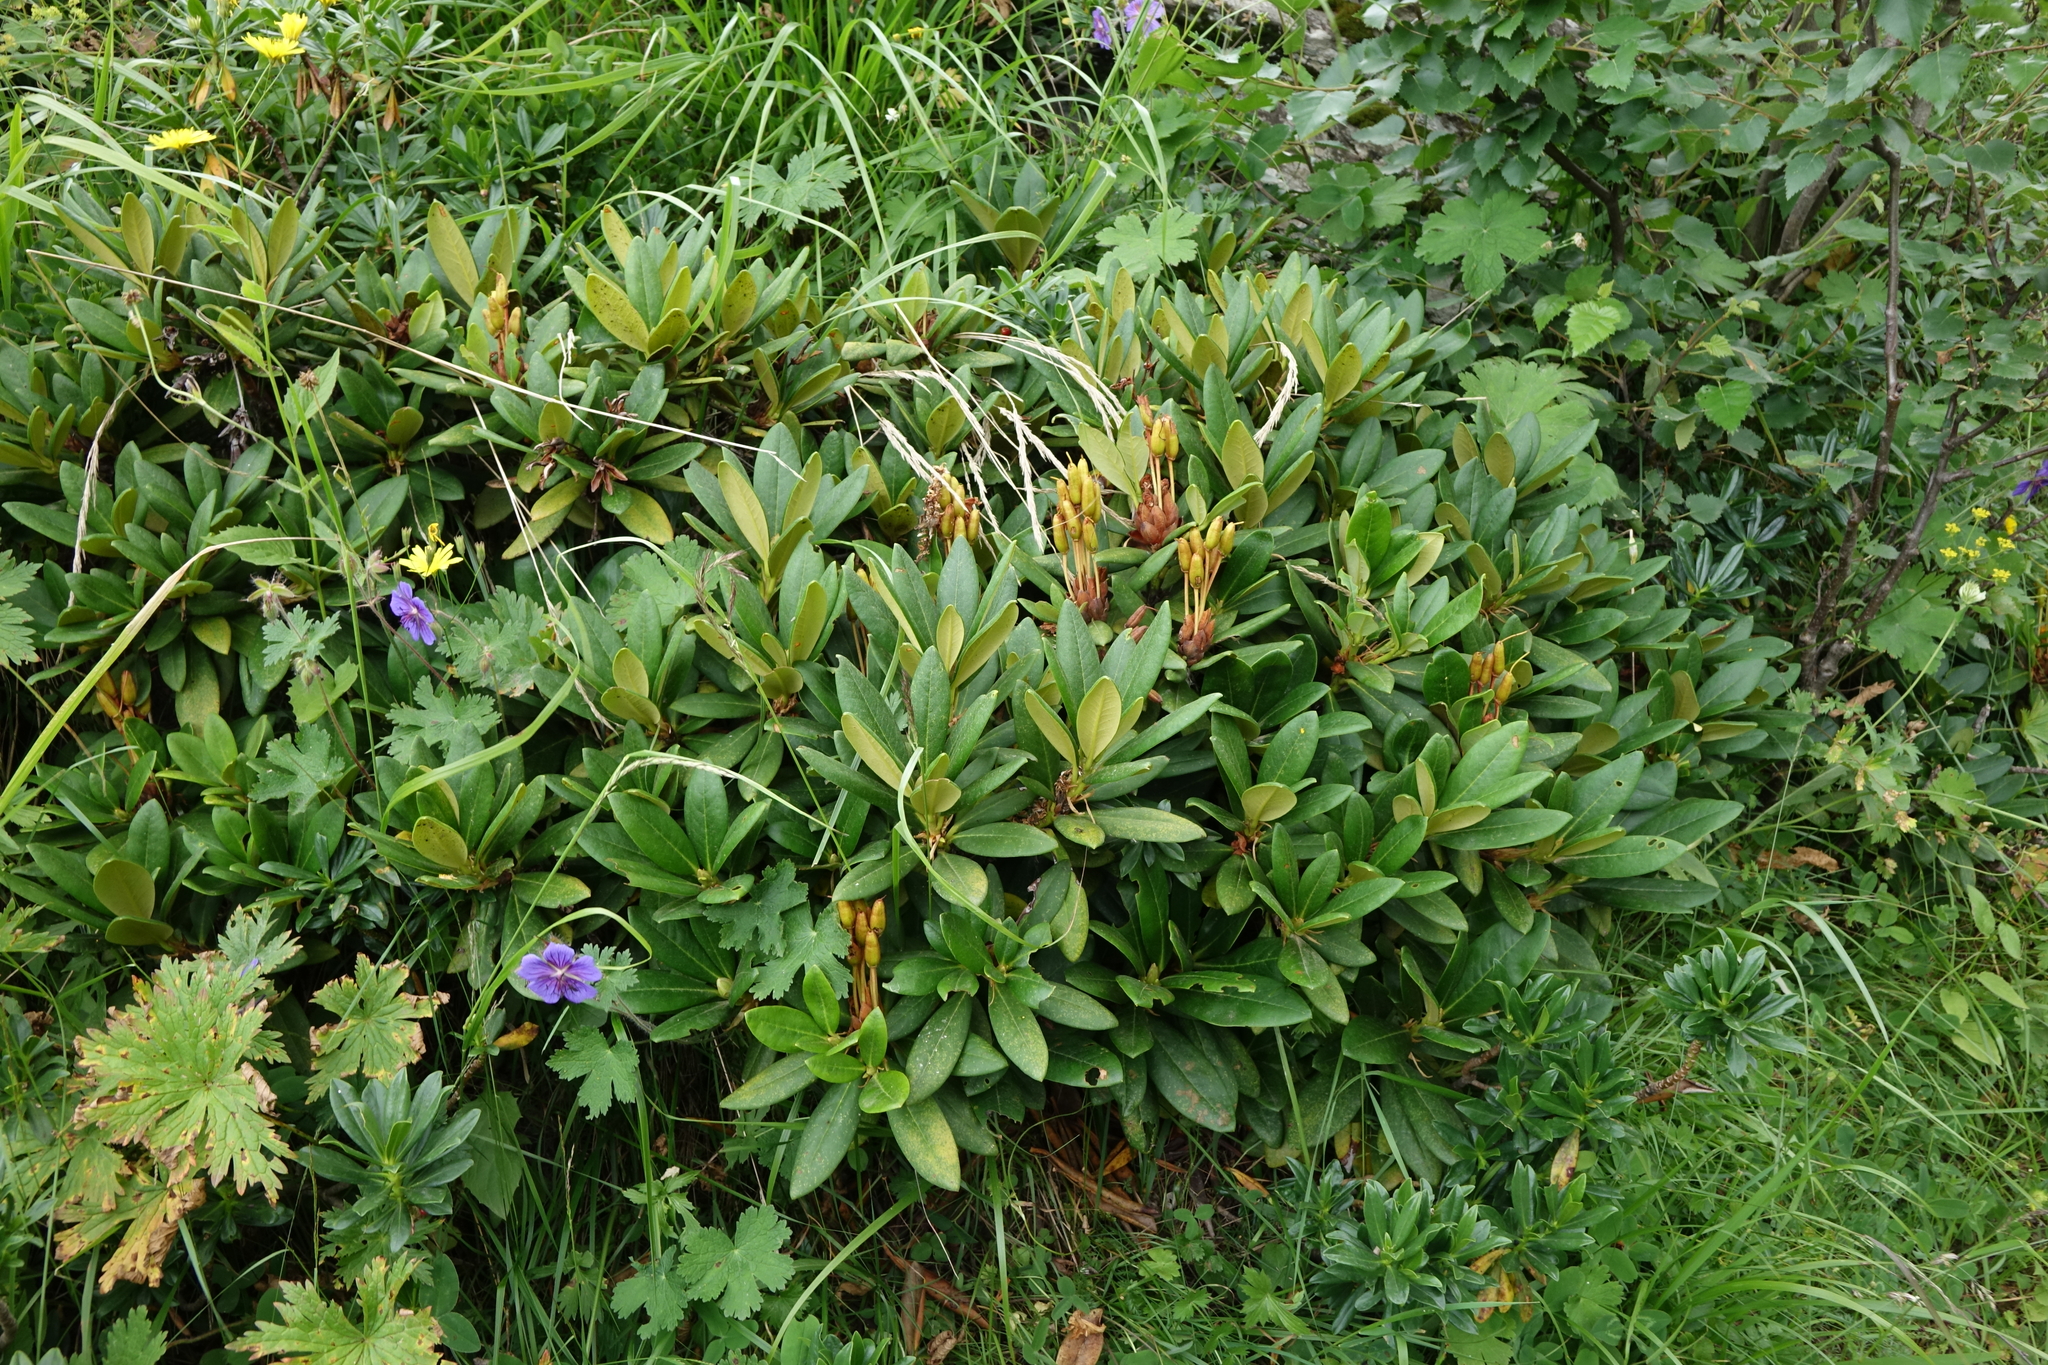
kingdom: Plantae
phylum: Tracheophyta
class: Magnoliopsida
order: Ericales
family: Ericaceae
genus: Rhododendron
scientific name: Rhododendron caucasicum
